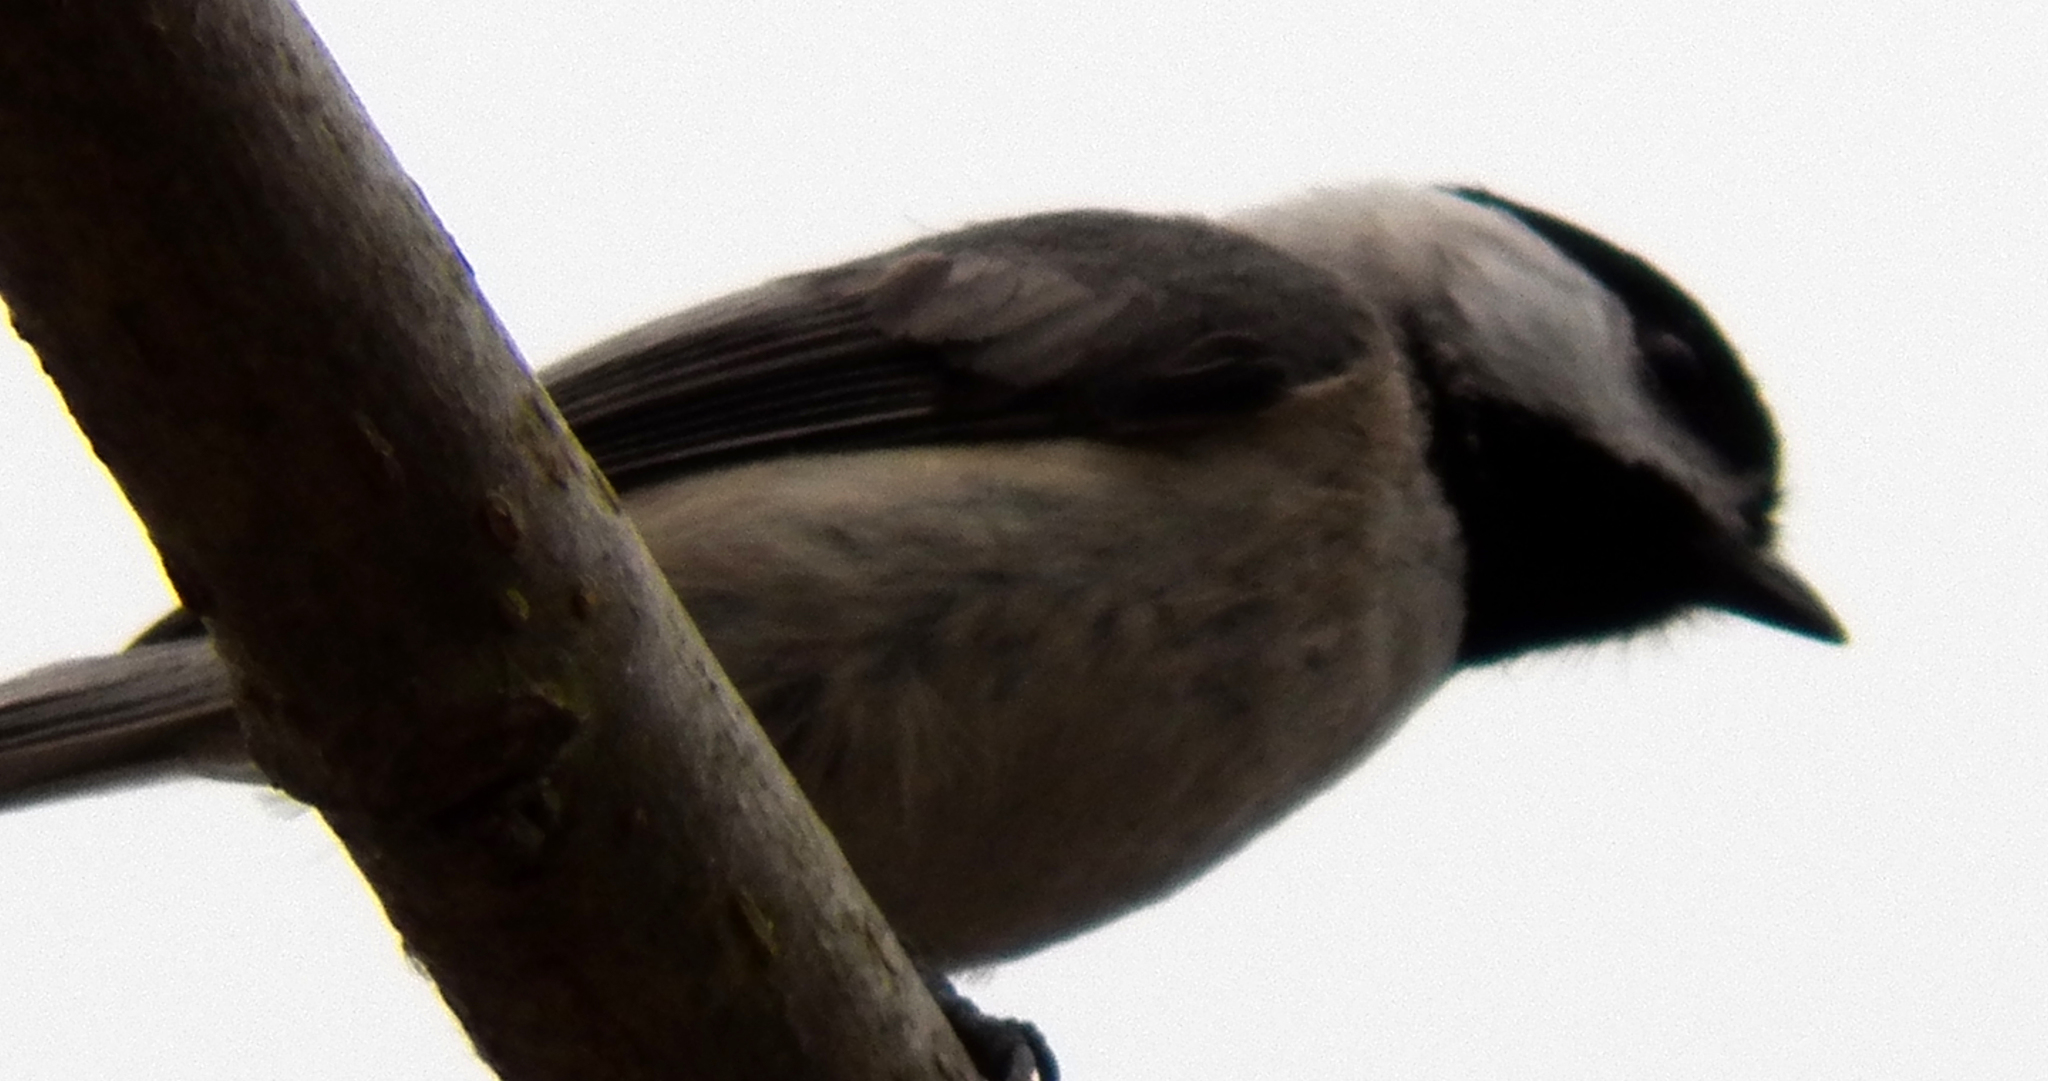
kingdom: Animalia
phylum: Chordata
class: Aves
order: Passeriformes
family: Paridae
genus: Poecile
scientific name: Poecile carolinensis
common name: Carolina chickadee
